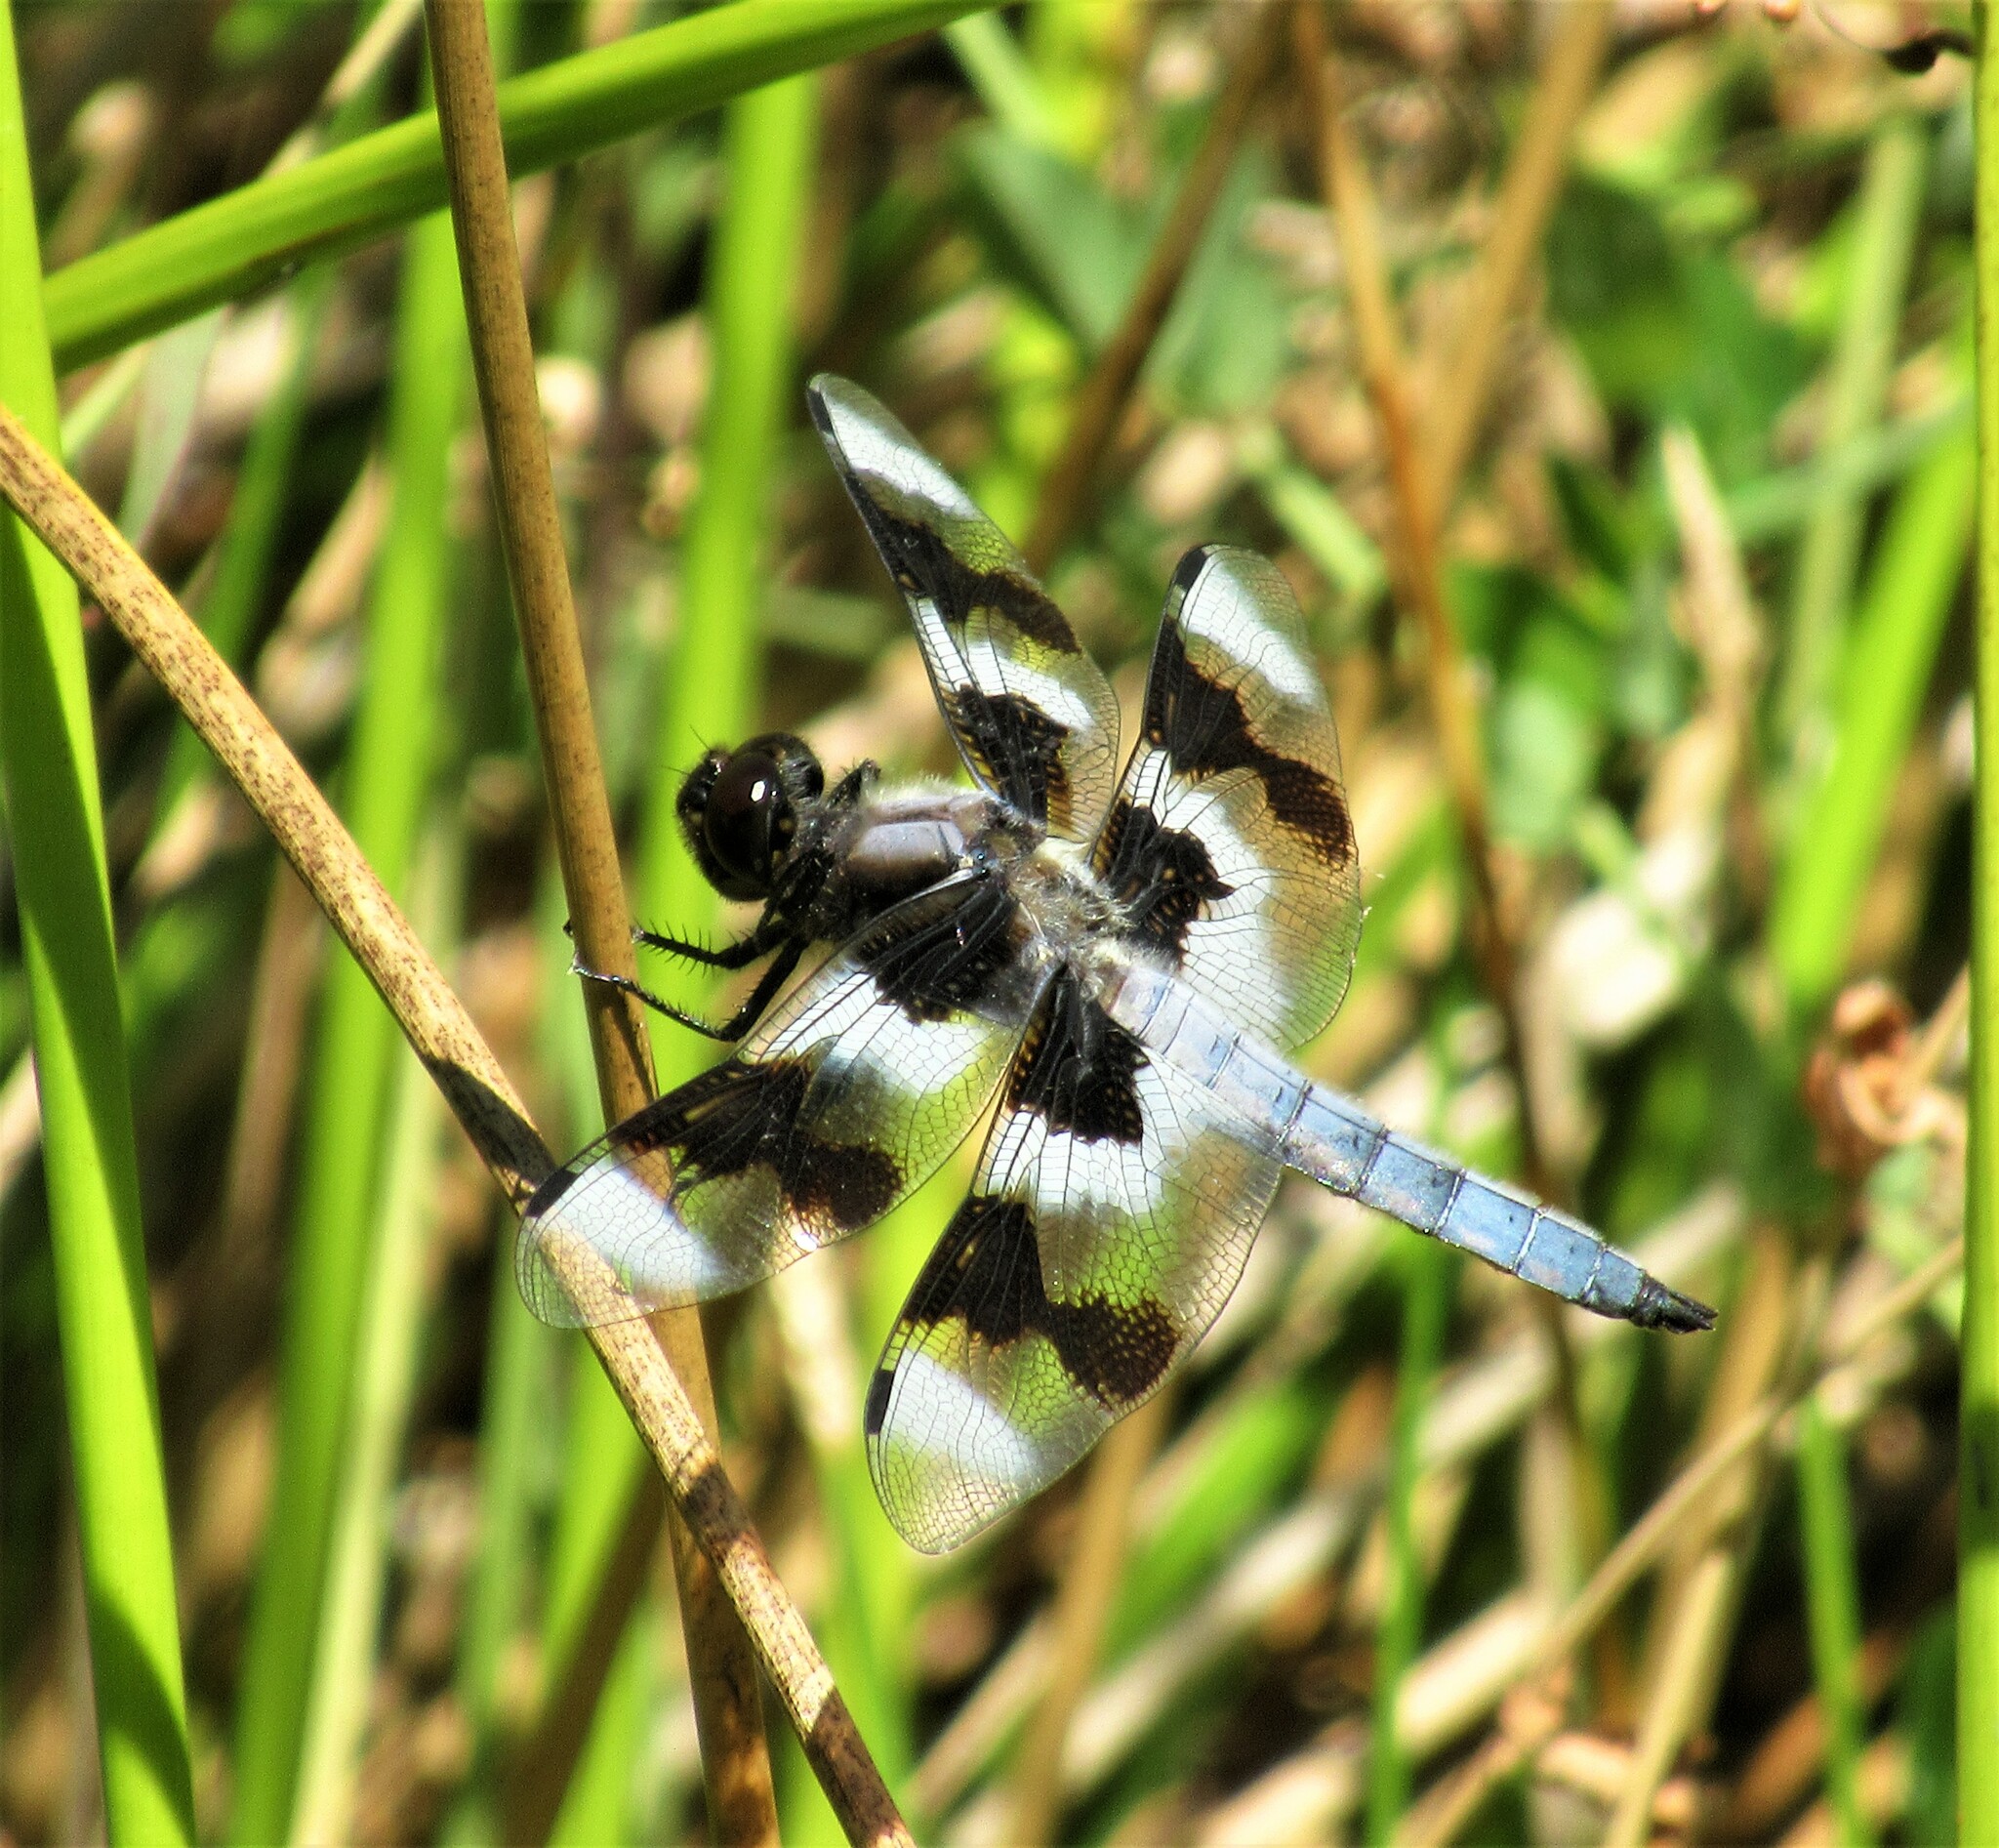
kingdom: Animalia
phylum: Arthropoda
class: Insecta
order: Odonata
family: Libellulidae
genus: Libellula
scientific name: Libellula forensis
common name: Eight-spotted skimmer
